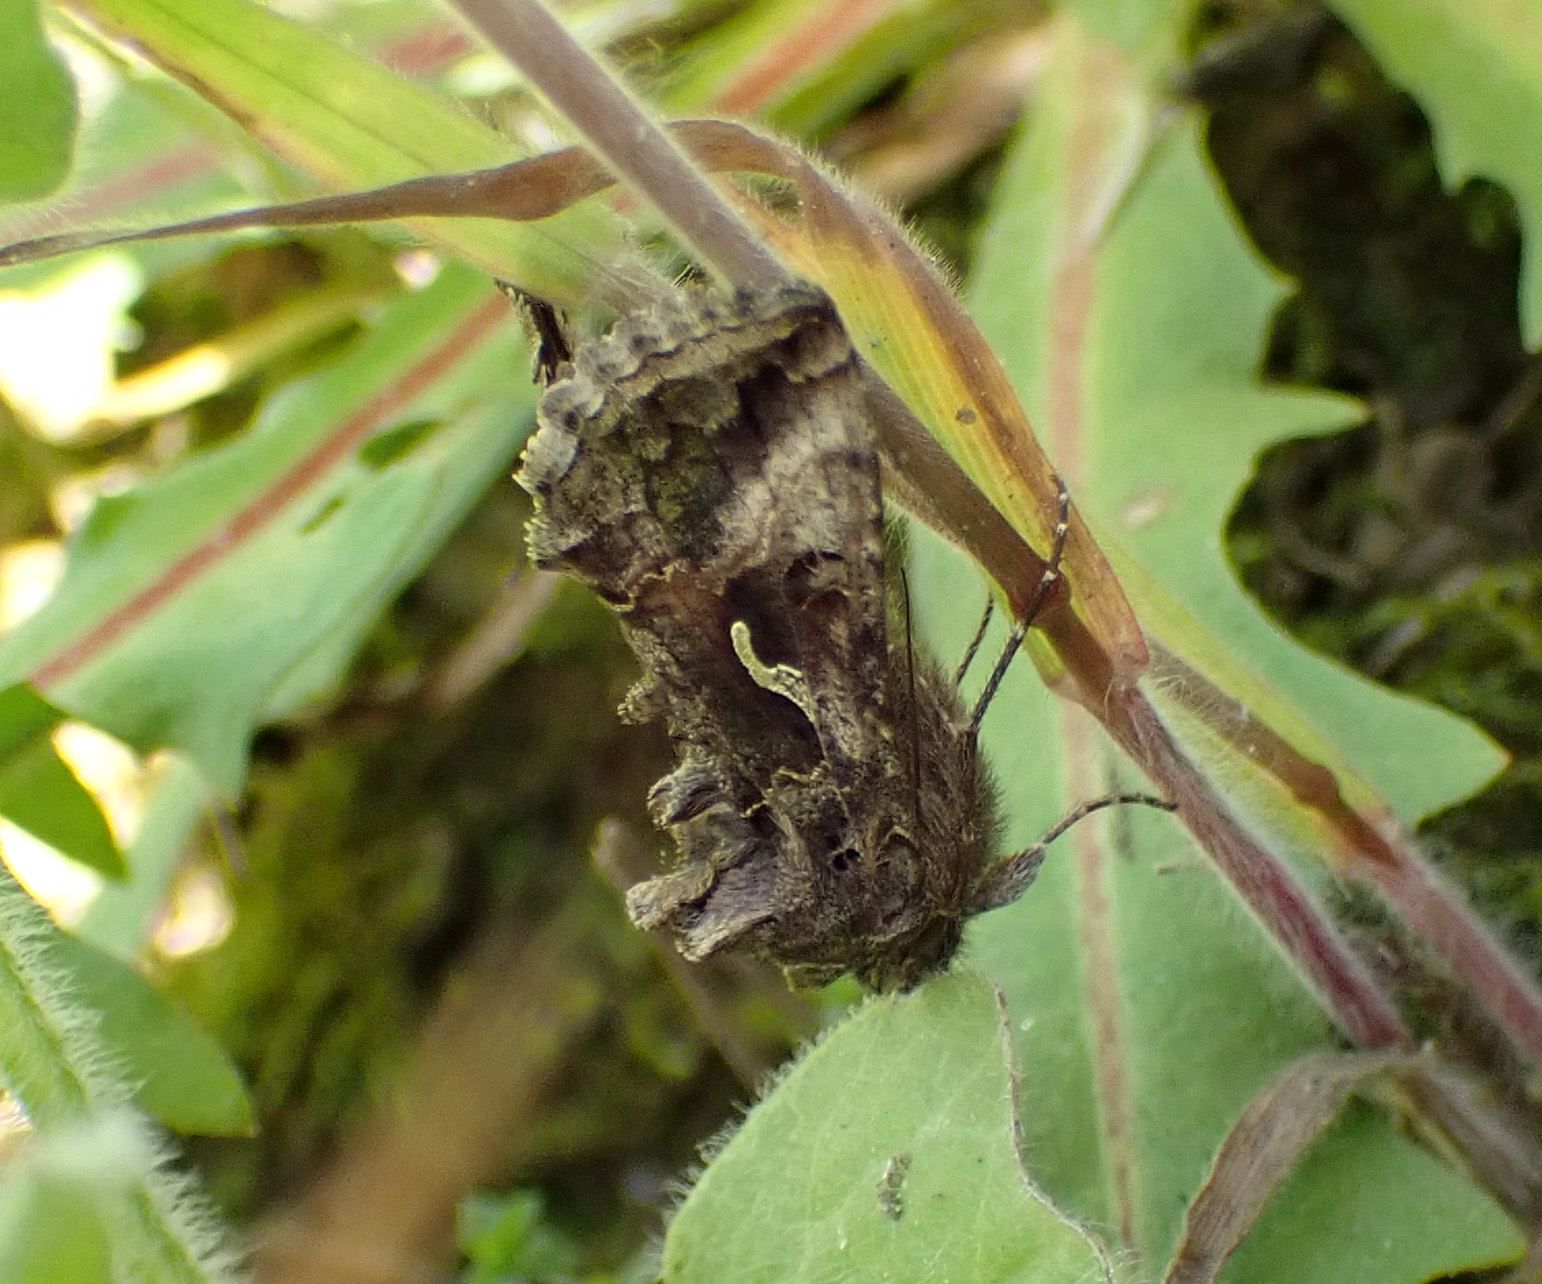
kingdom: Animalia
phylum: Arthropoda
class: Insecta
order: Lepidoptera
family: Noctuidae
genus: Autographa
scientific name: Autographa gamma
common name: Silver y
